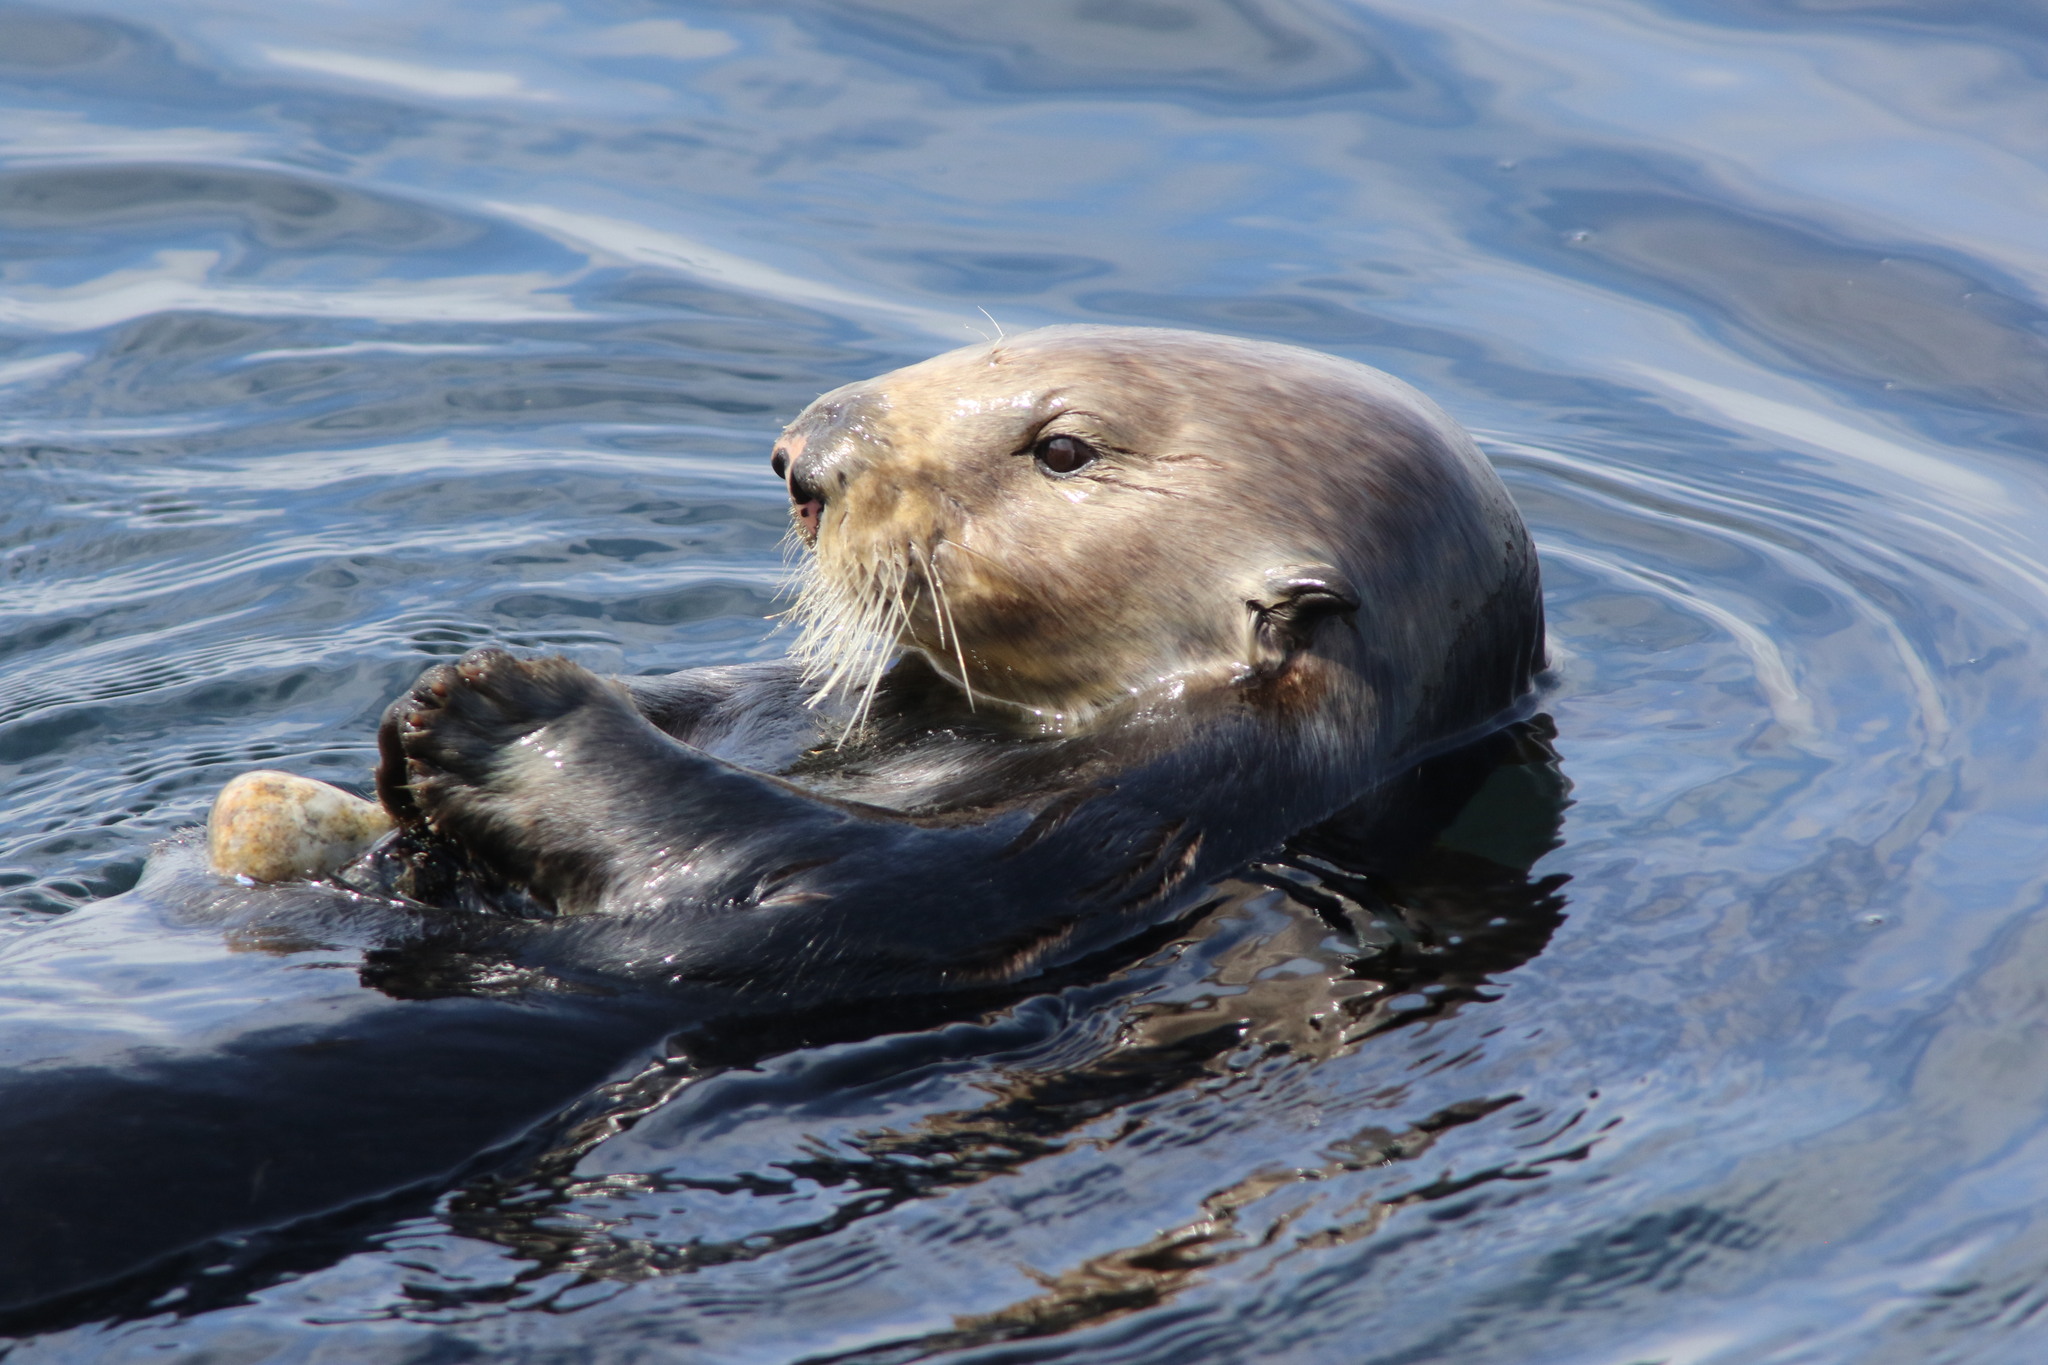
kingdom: Animalia
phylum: Chordata
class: Mammalia
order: Carnivora
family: Mustelidae
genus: Enhydra
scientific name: Enhydra lutris
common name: Sea otter
